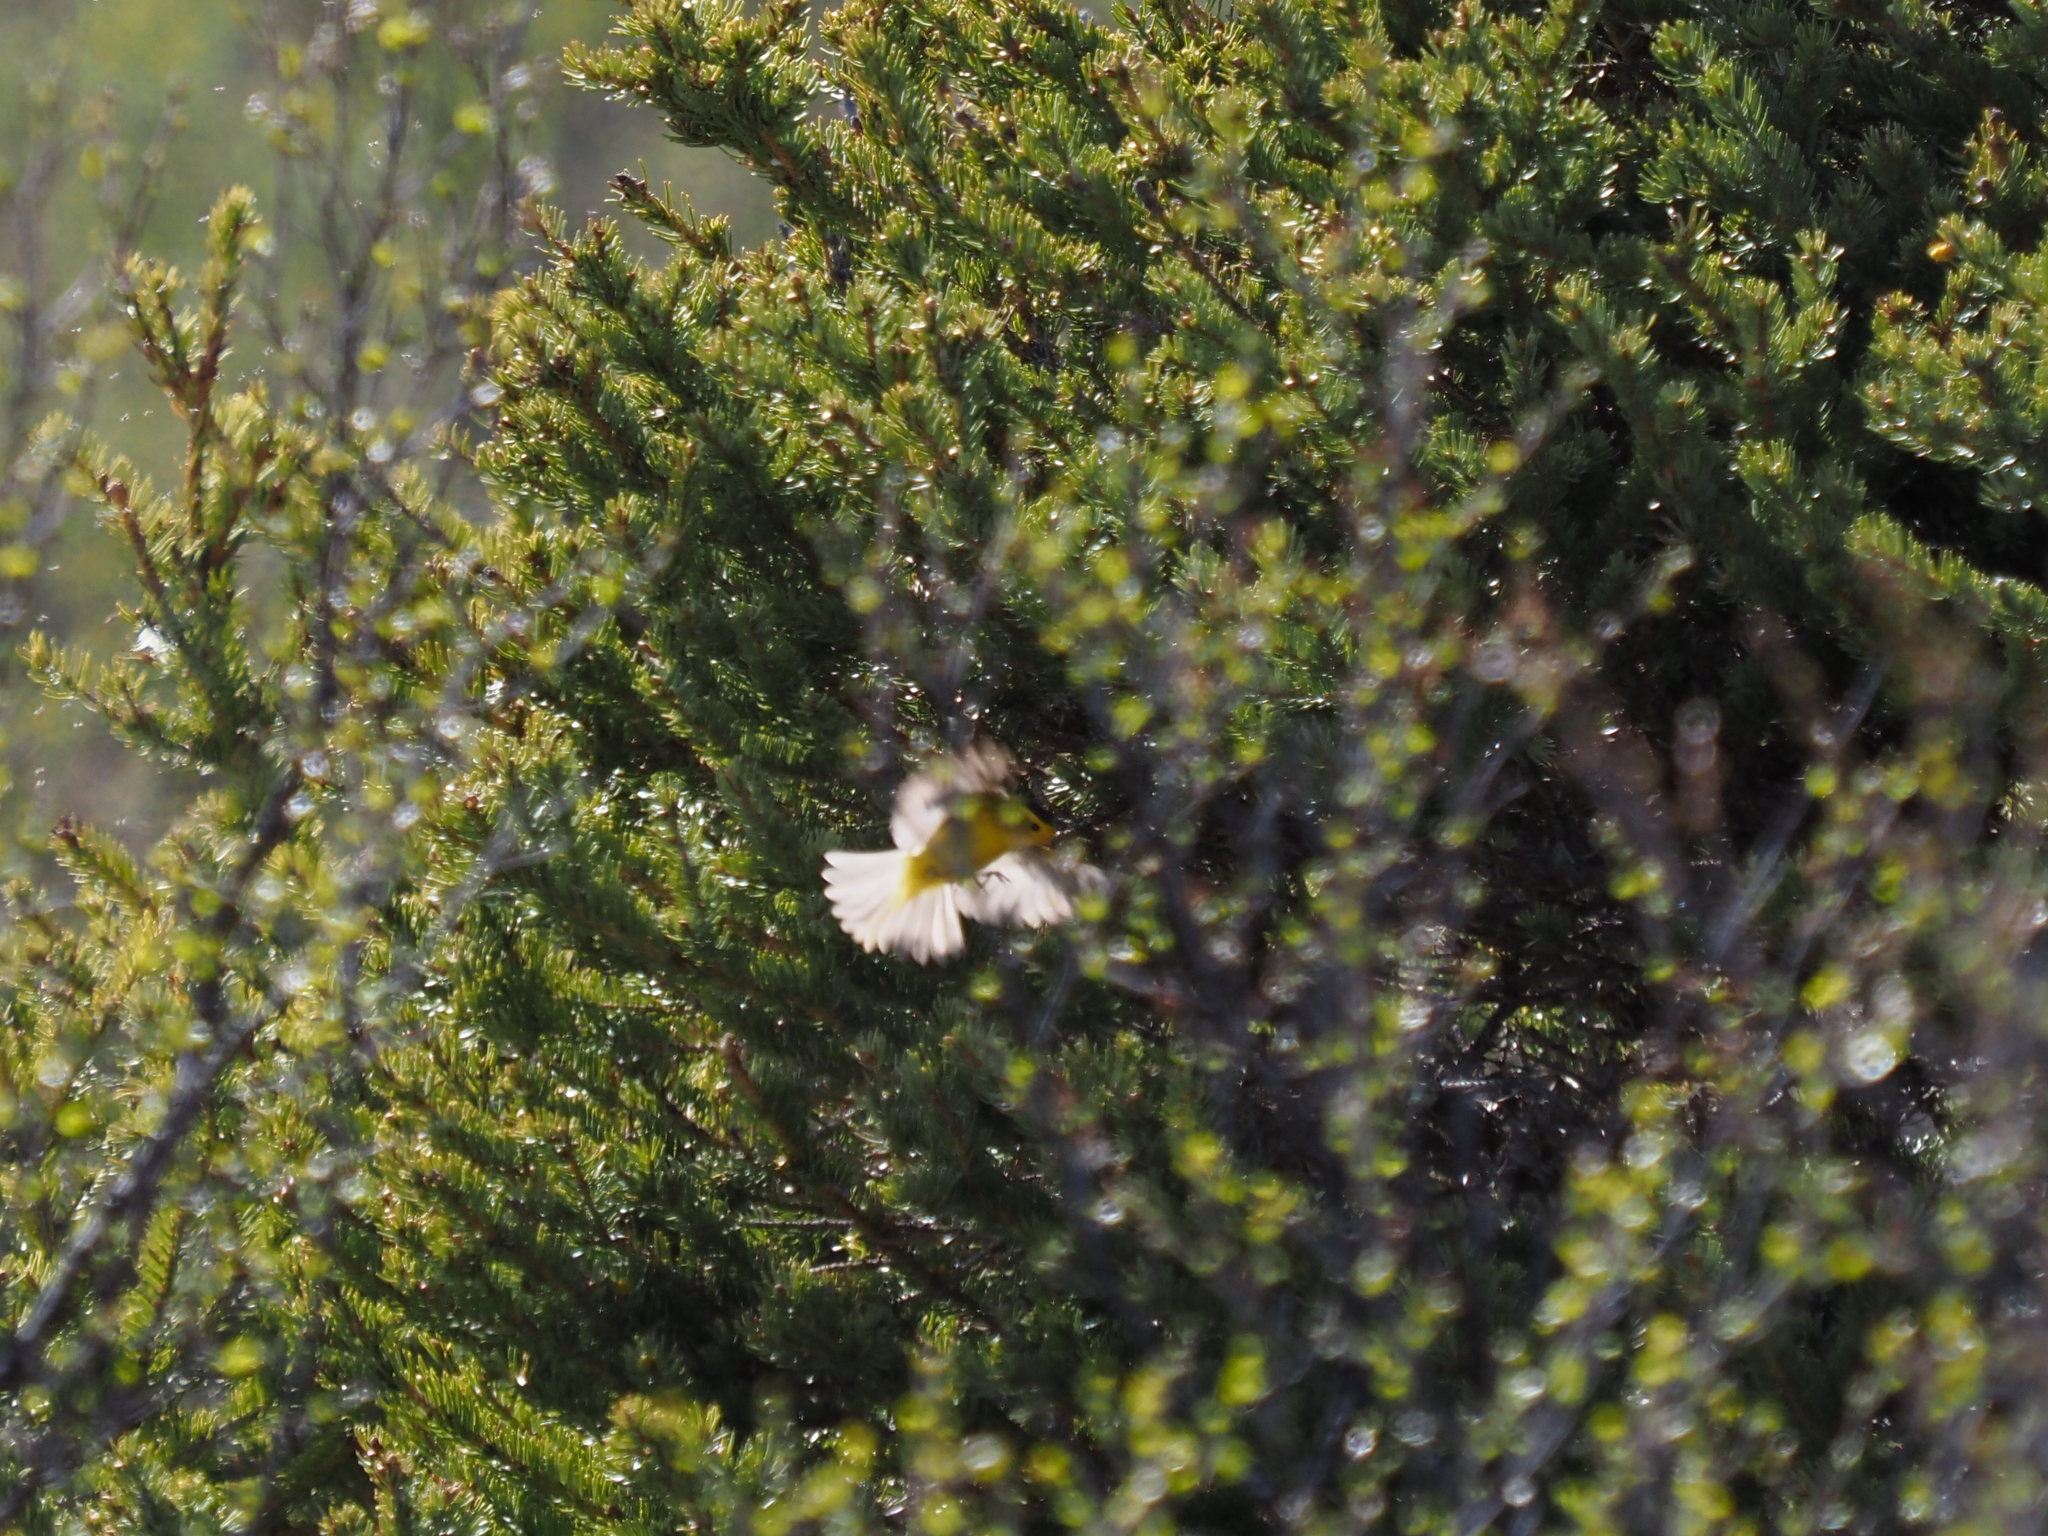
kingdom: Animalia
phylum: Chordata
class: Aves
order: Passeriformes
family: Parulidae
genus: Cardellina
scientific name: Cardellina pusilla
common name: Wilson's warbler
